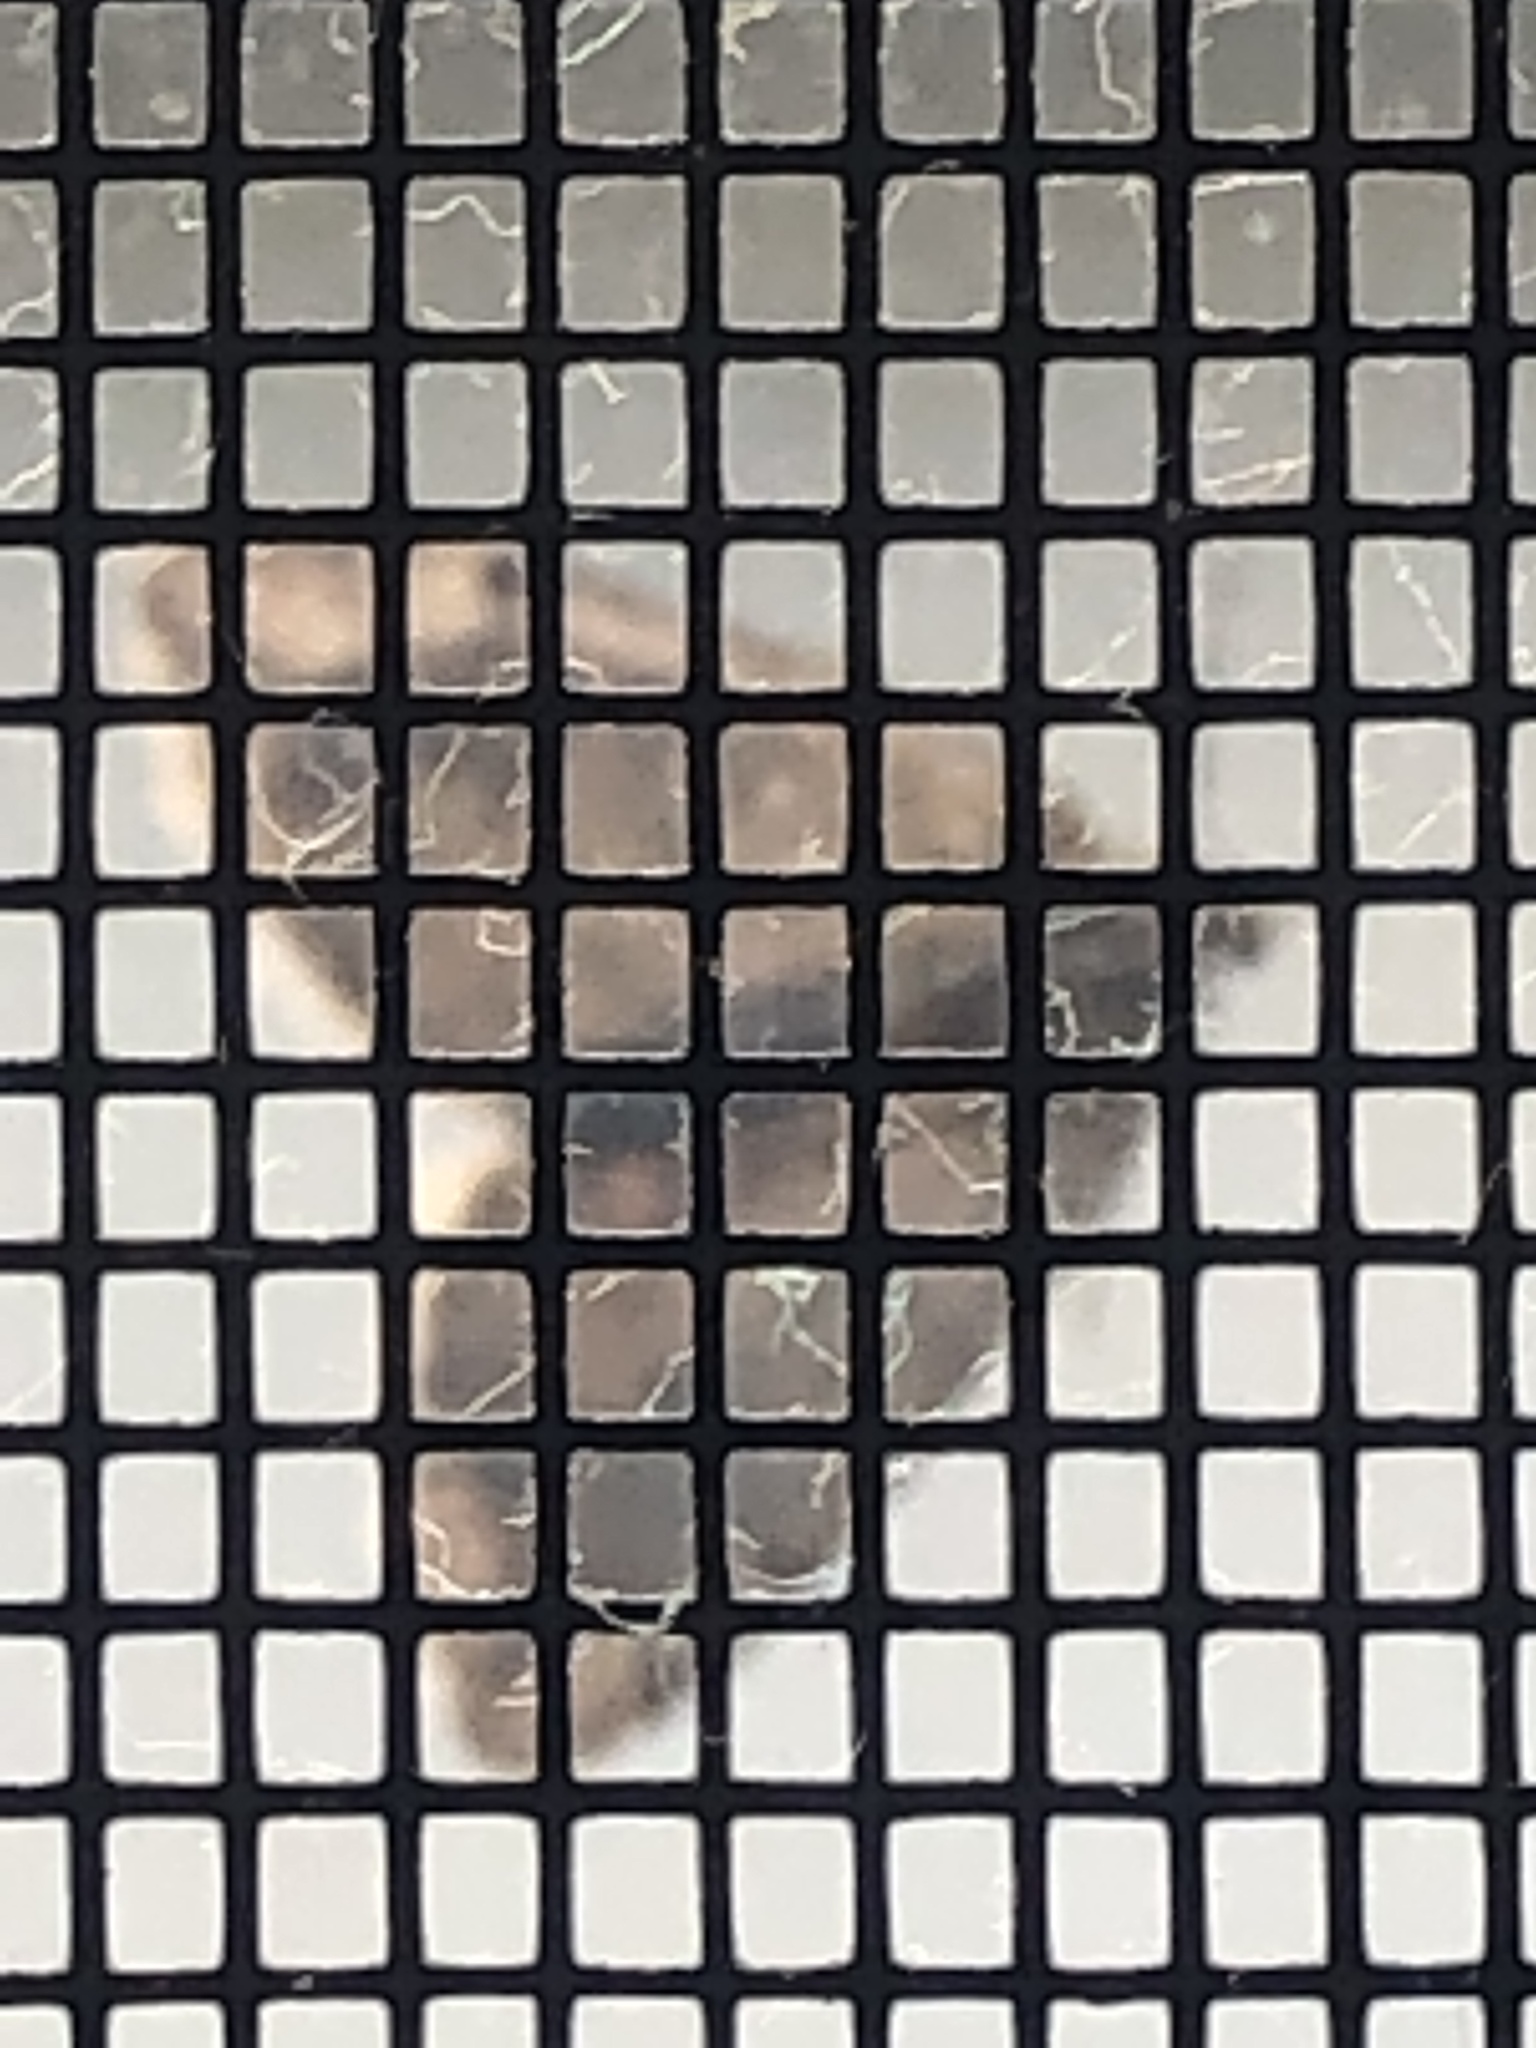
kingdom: Animalia
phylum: Arthropoda
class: Insecta
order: Lepidoptera
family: Geometridae
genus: Thera
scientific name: Thera juniperata
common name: Juniper carpet
